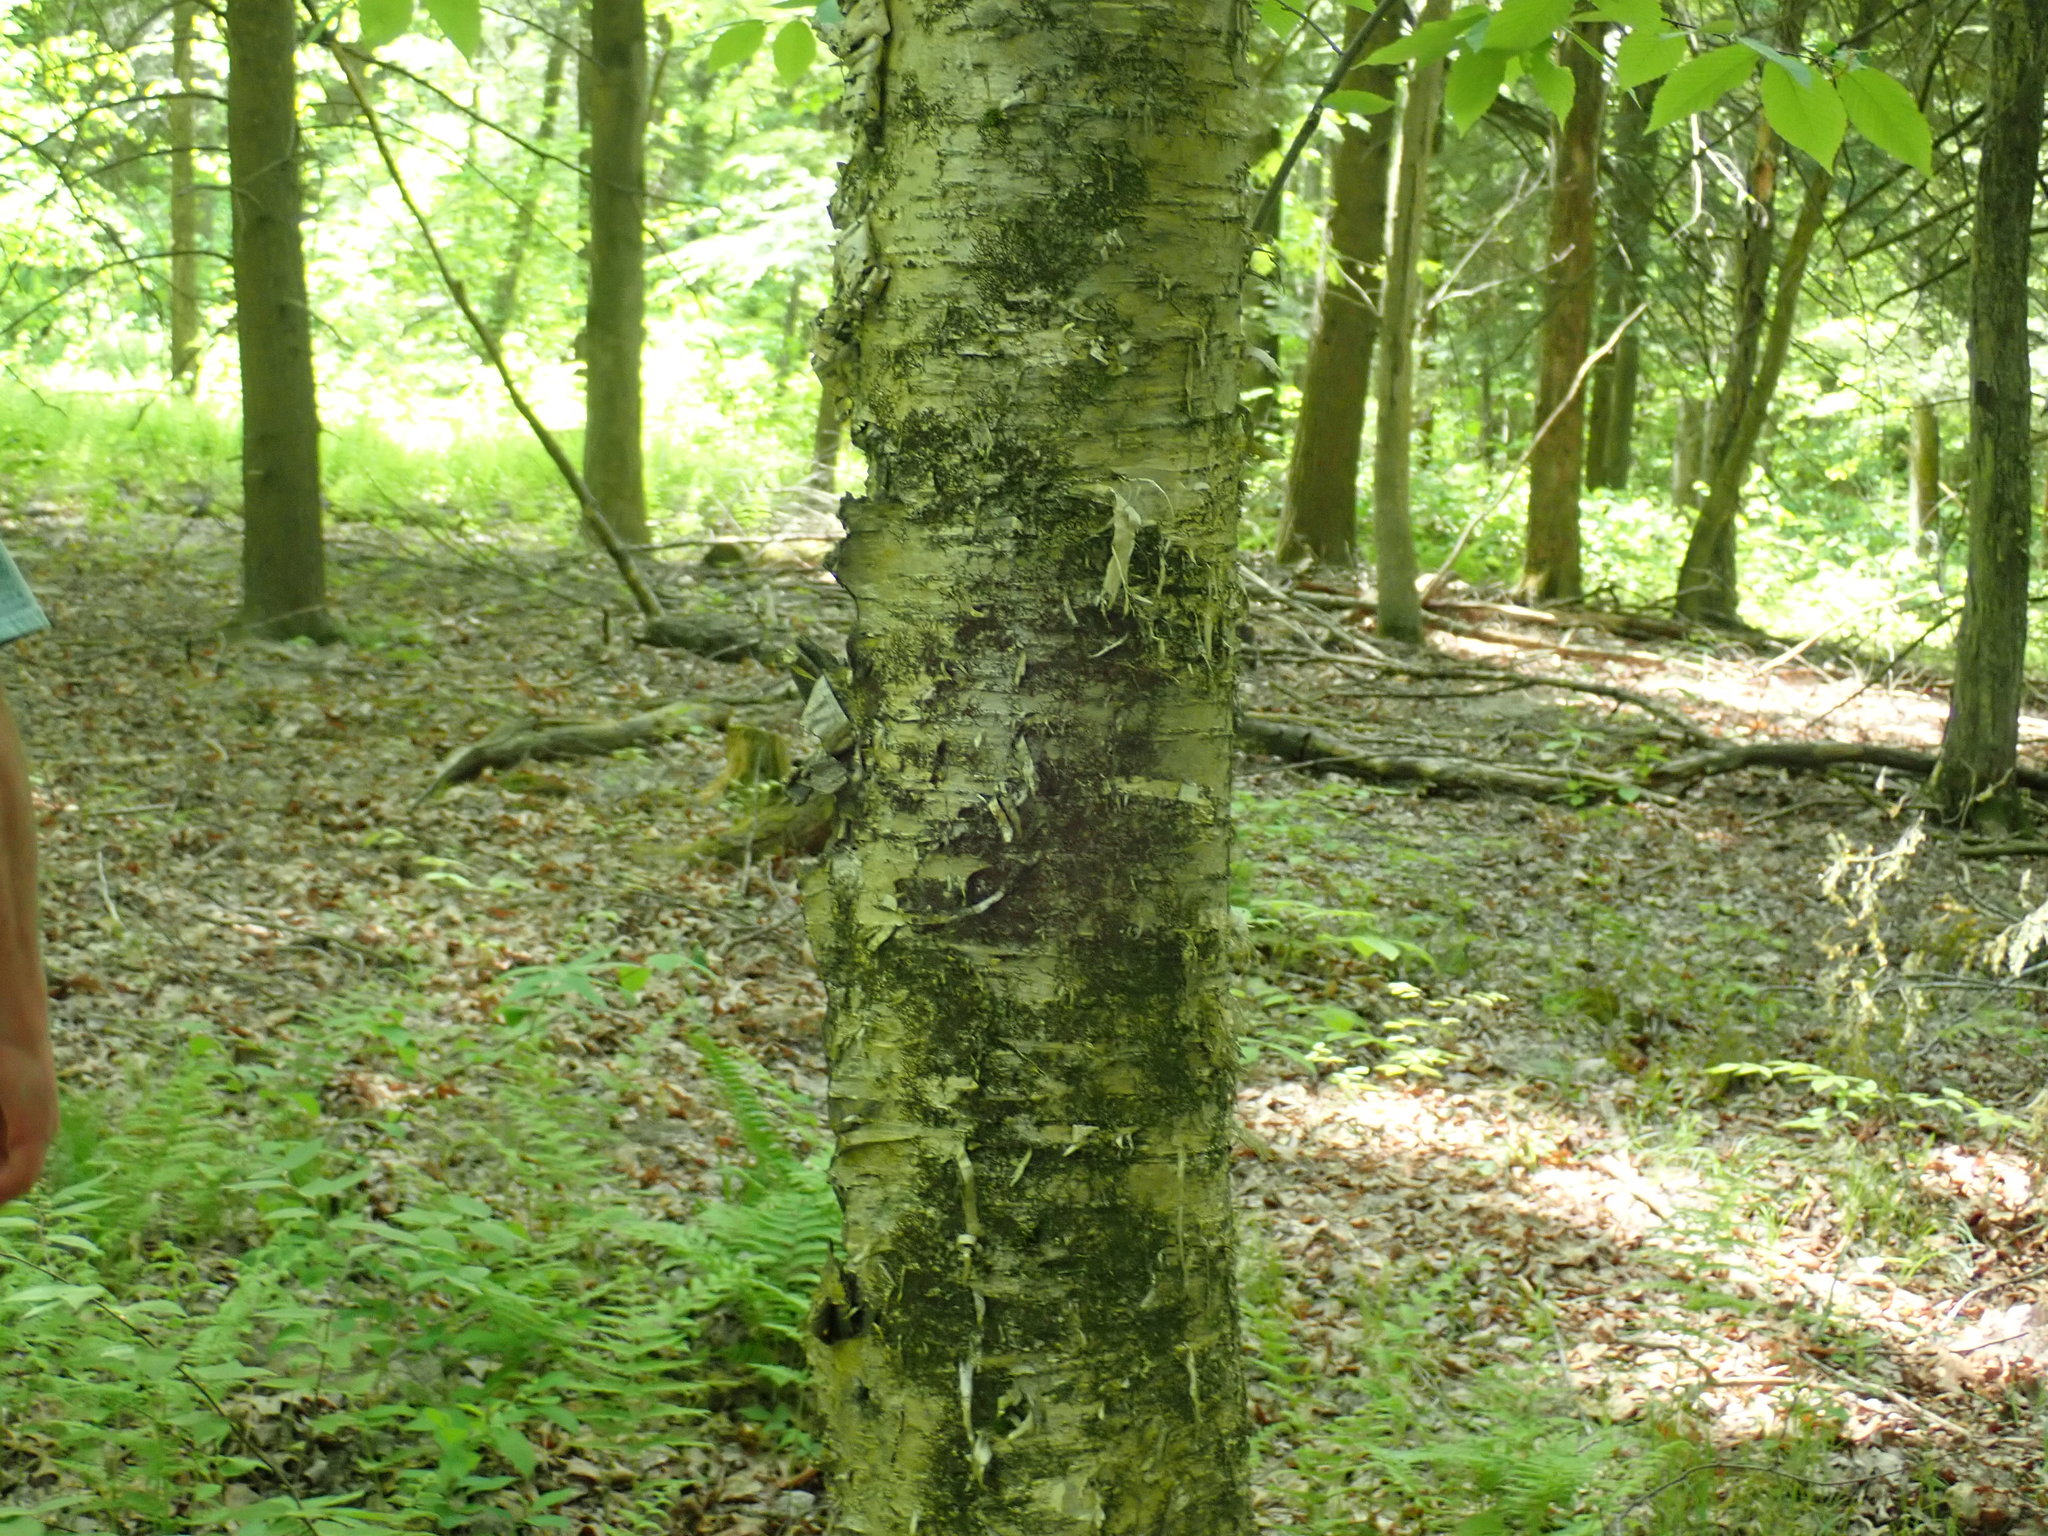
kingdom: Plantae
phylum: Tracheophyta
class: Magnoliopsida
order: Fagales
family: Betulaceae
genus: Betula
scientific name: Betula alleghaniensis
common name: Yellow birch
